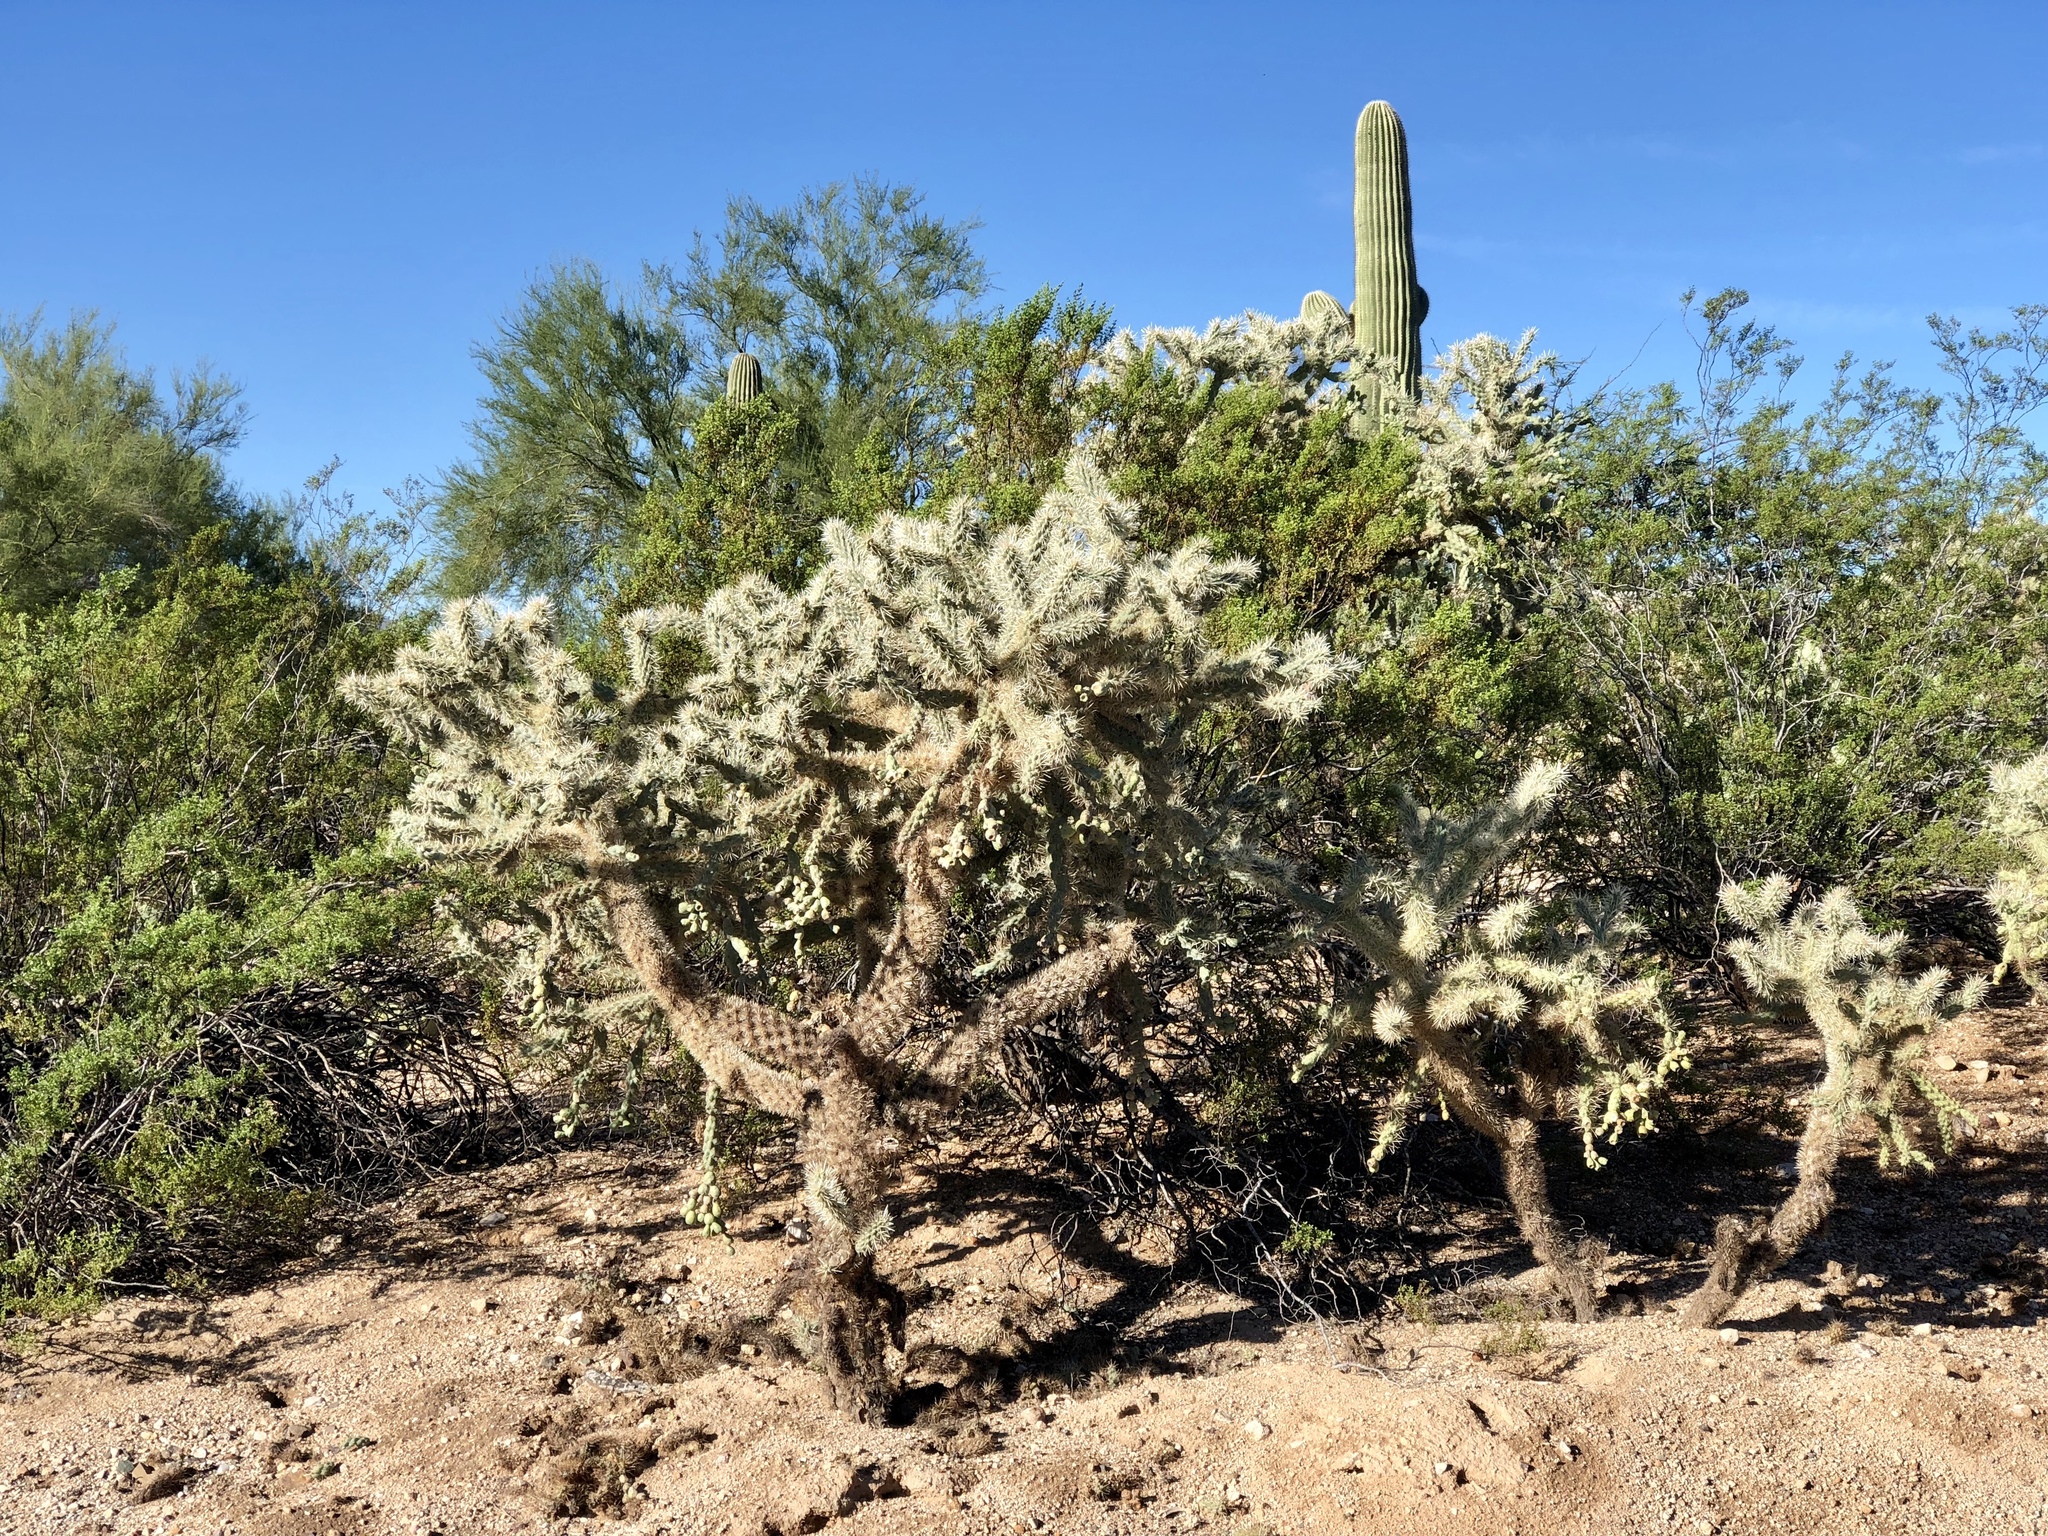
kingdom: Plantae
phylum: Tracheophyta
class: Magnoliopsida
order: Caryophyllales
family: Cactaceae
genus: Cylindropuntia
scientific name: Cylindropuntia fulgida
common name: Jumping cholla
